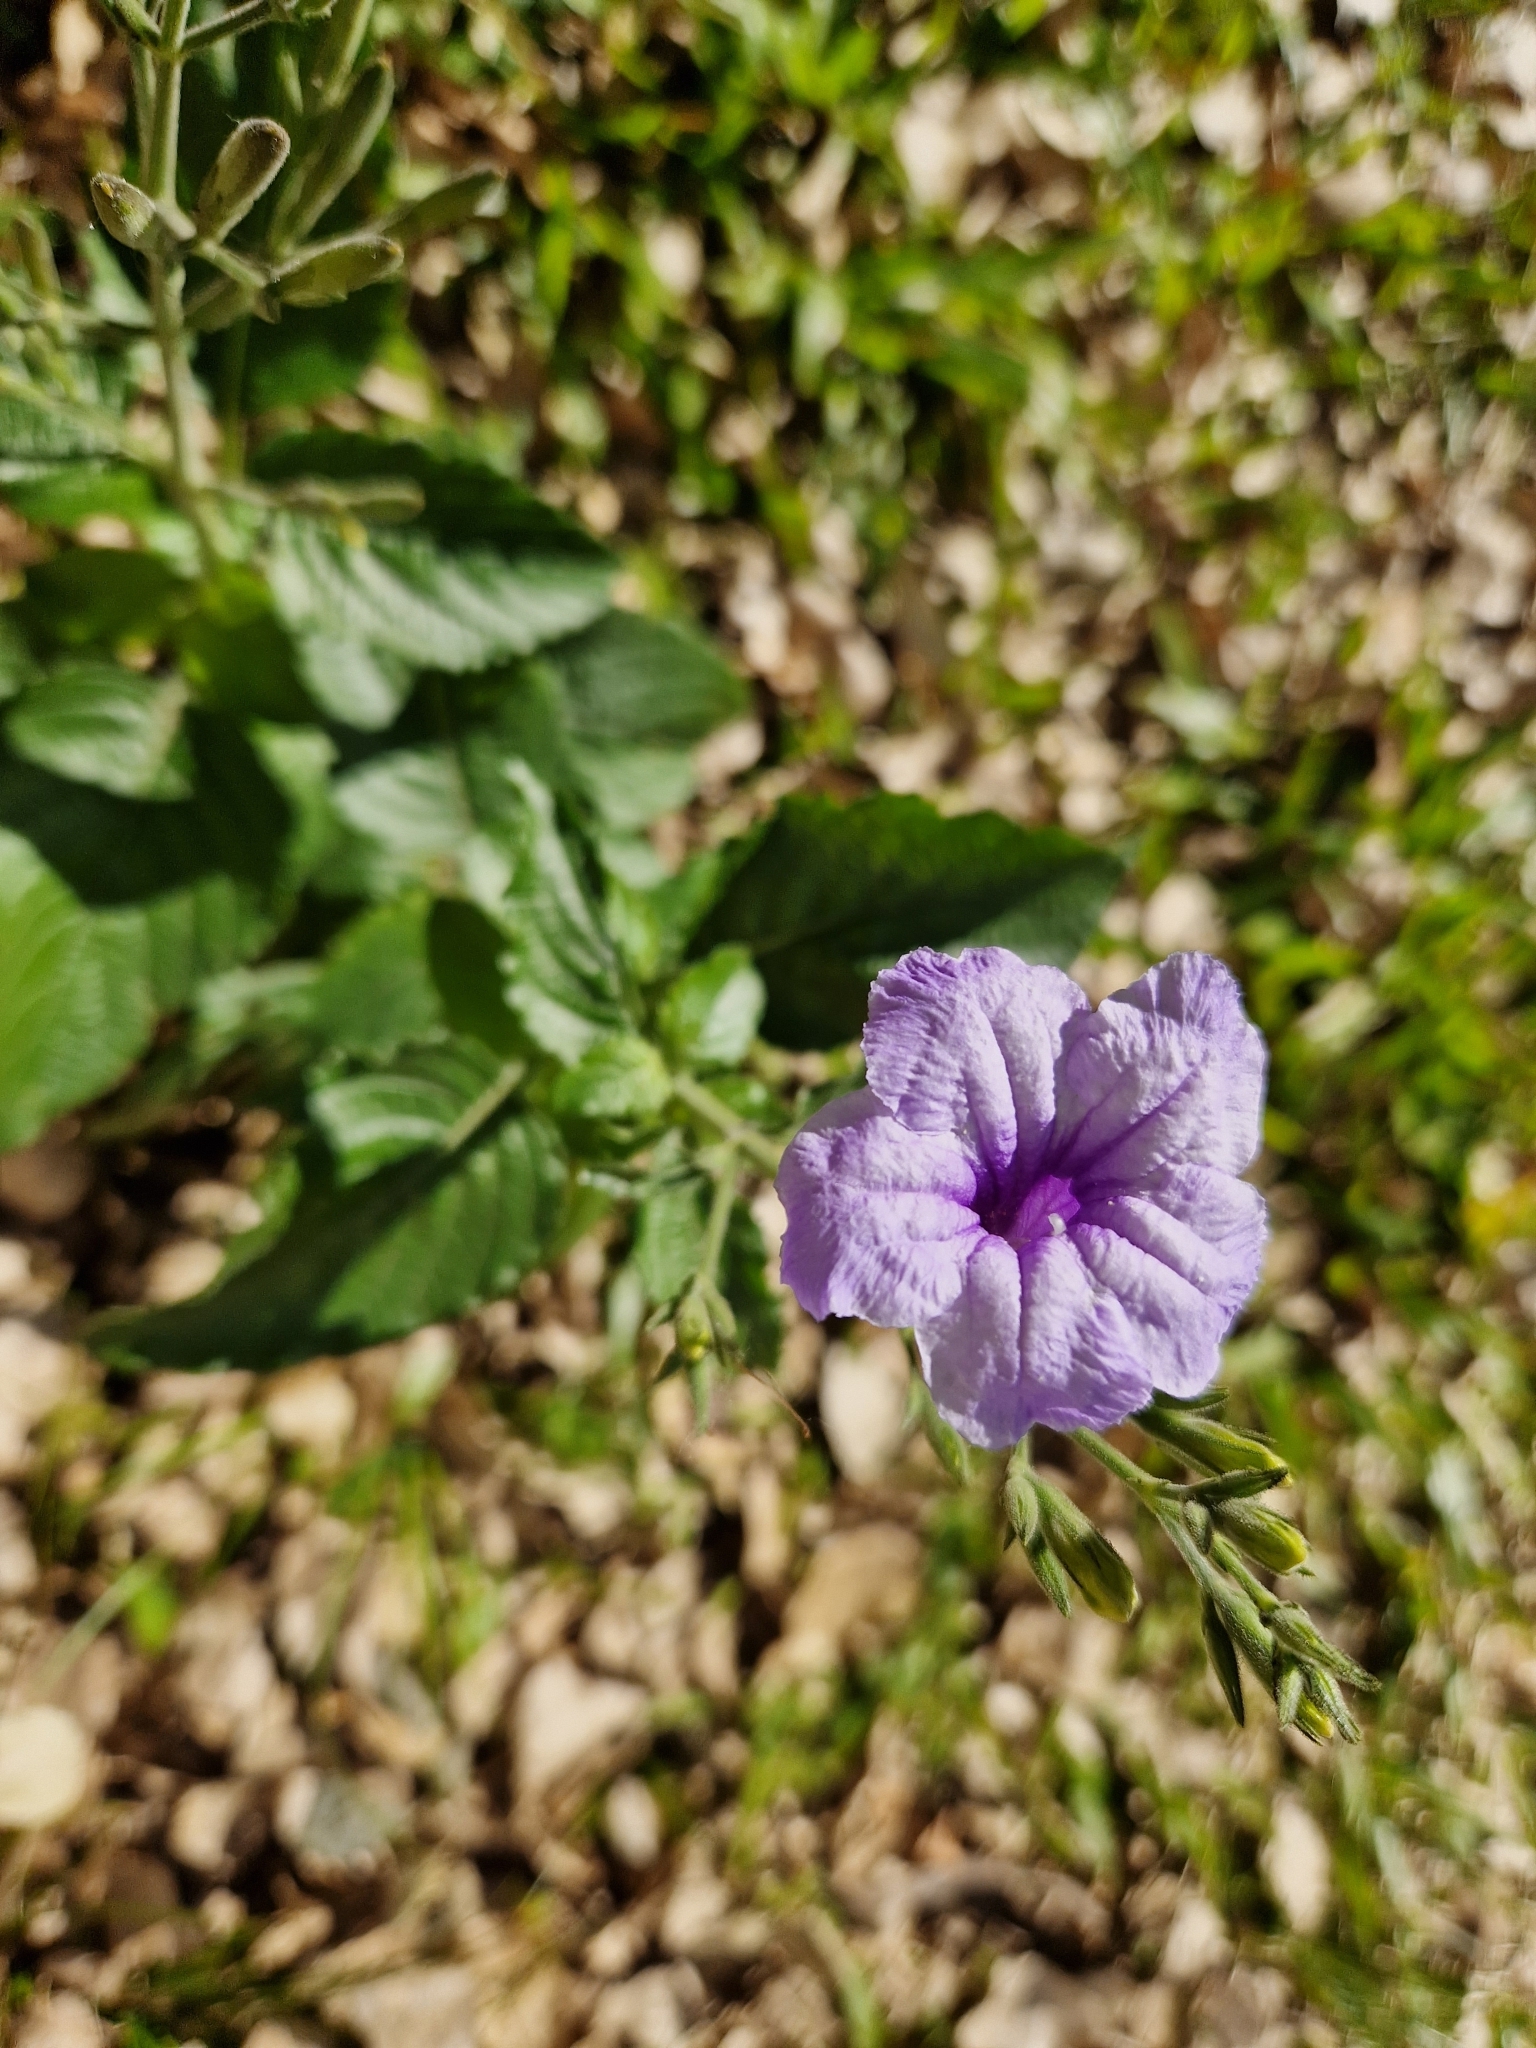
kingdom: Plantae
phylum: Tracheophyta
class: Magnoliopsida
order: Lamiales
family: Acanthaceae
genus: Ruellia
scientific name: Ruellia ciliatiflora
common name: Hairyflower wild petunia
